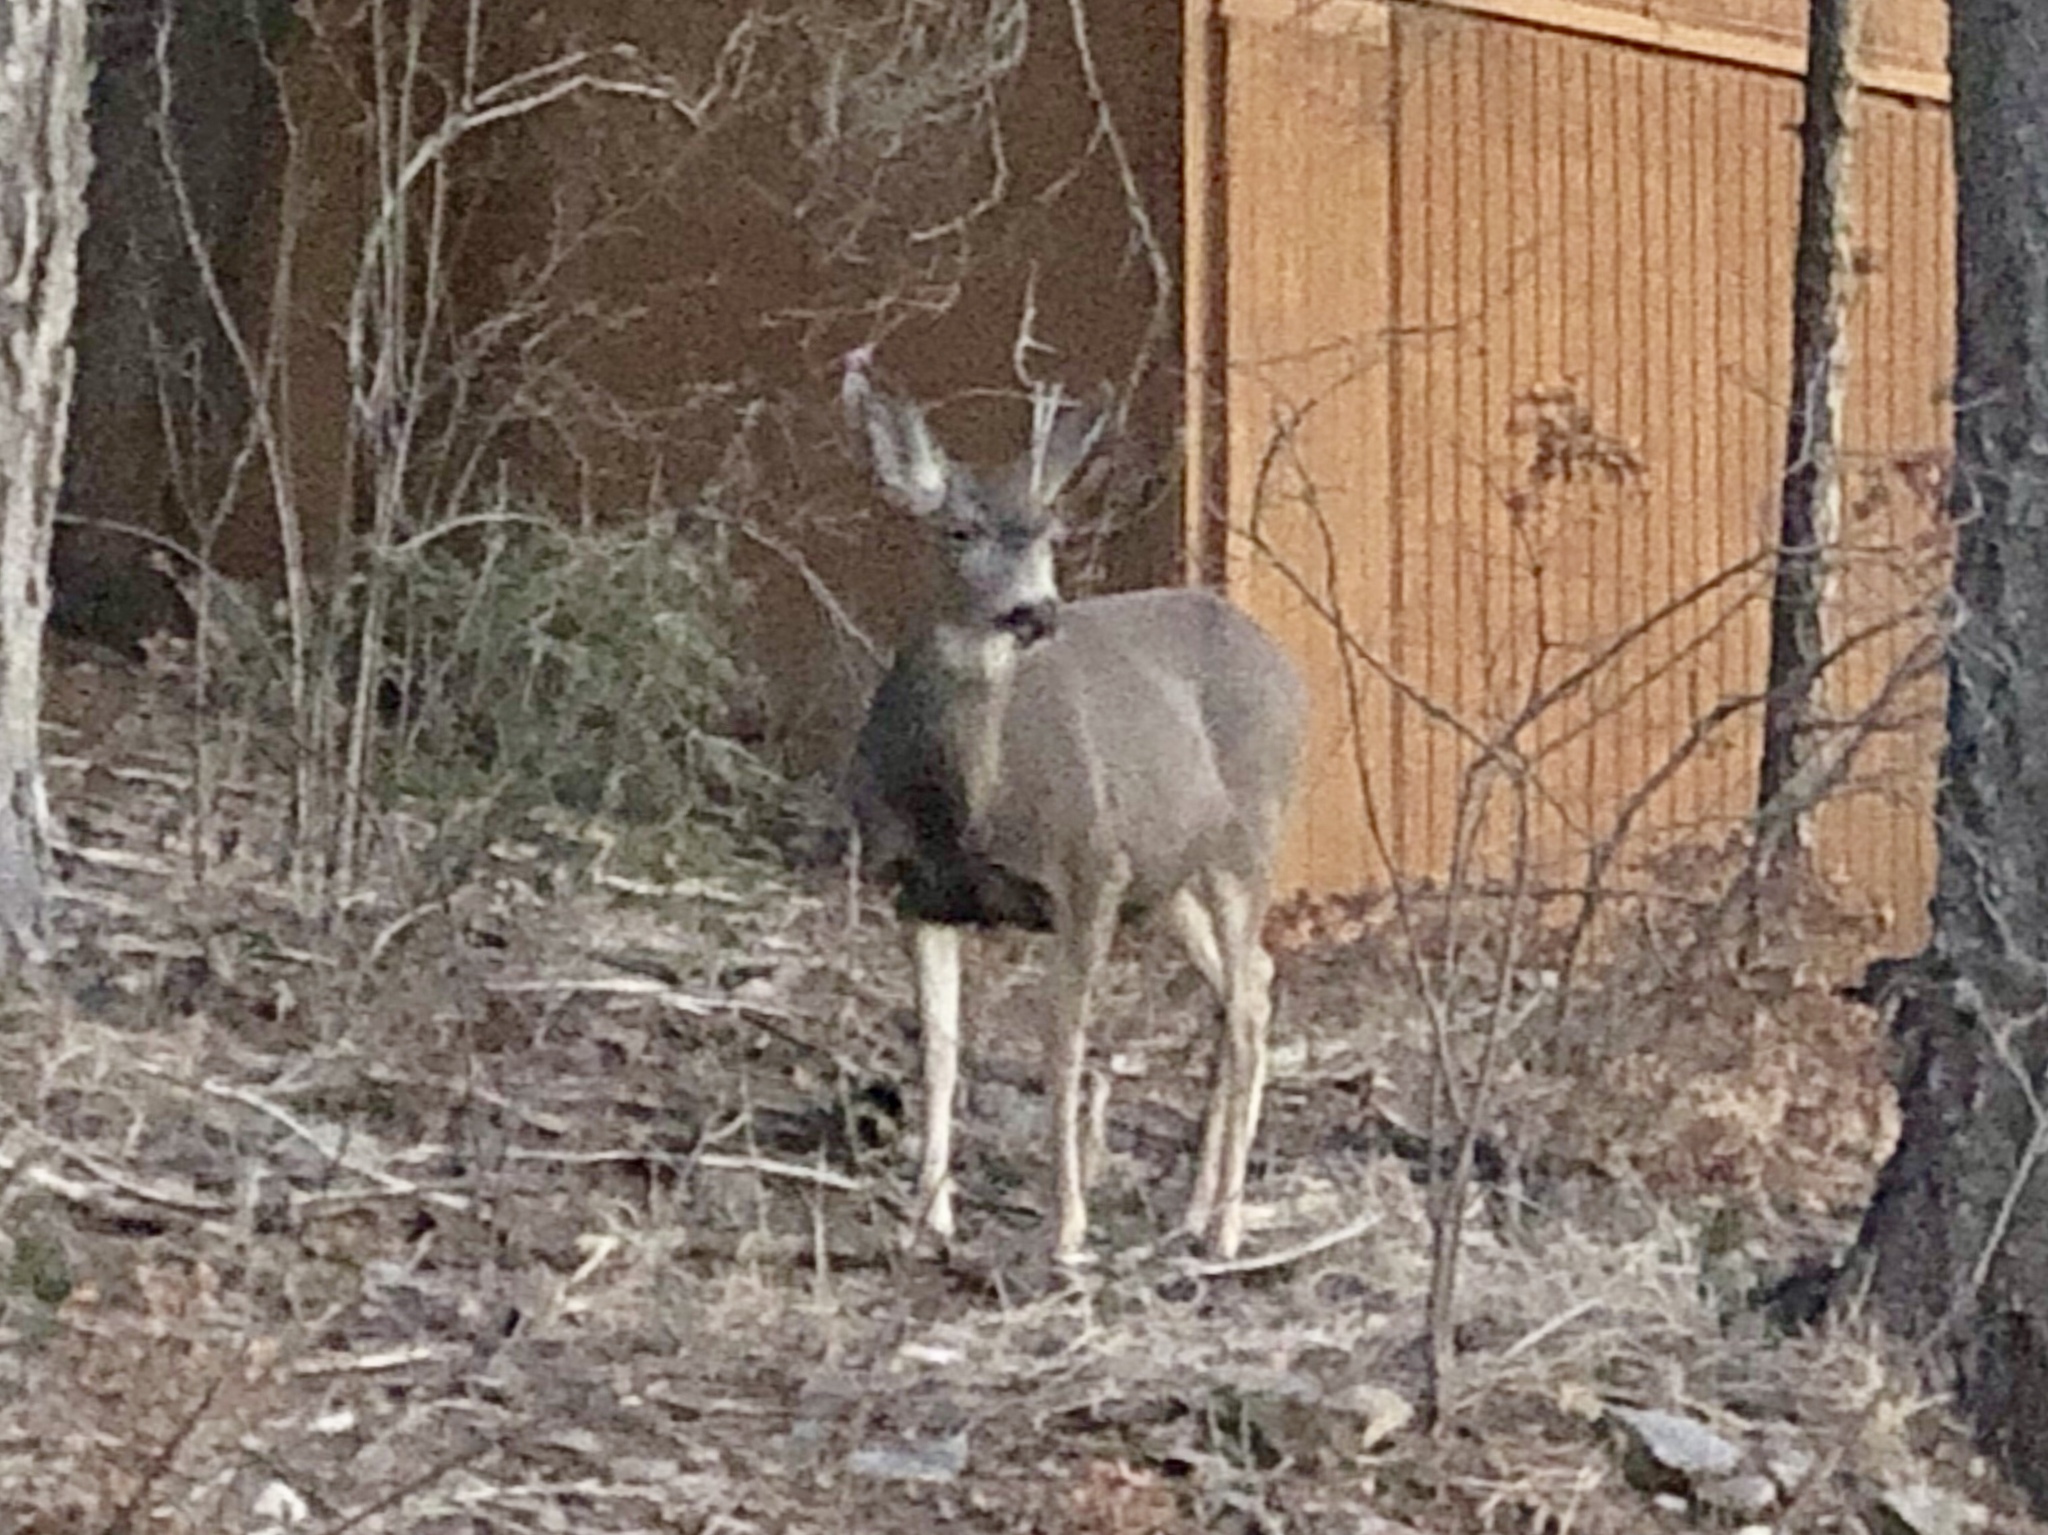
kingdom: Animalia
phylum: Chordata
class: Mammalia
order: Artiodactyla
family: Cervidae
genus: Odocoileus
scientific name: Odocoileus hemionus
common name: Mule deer
